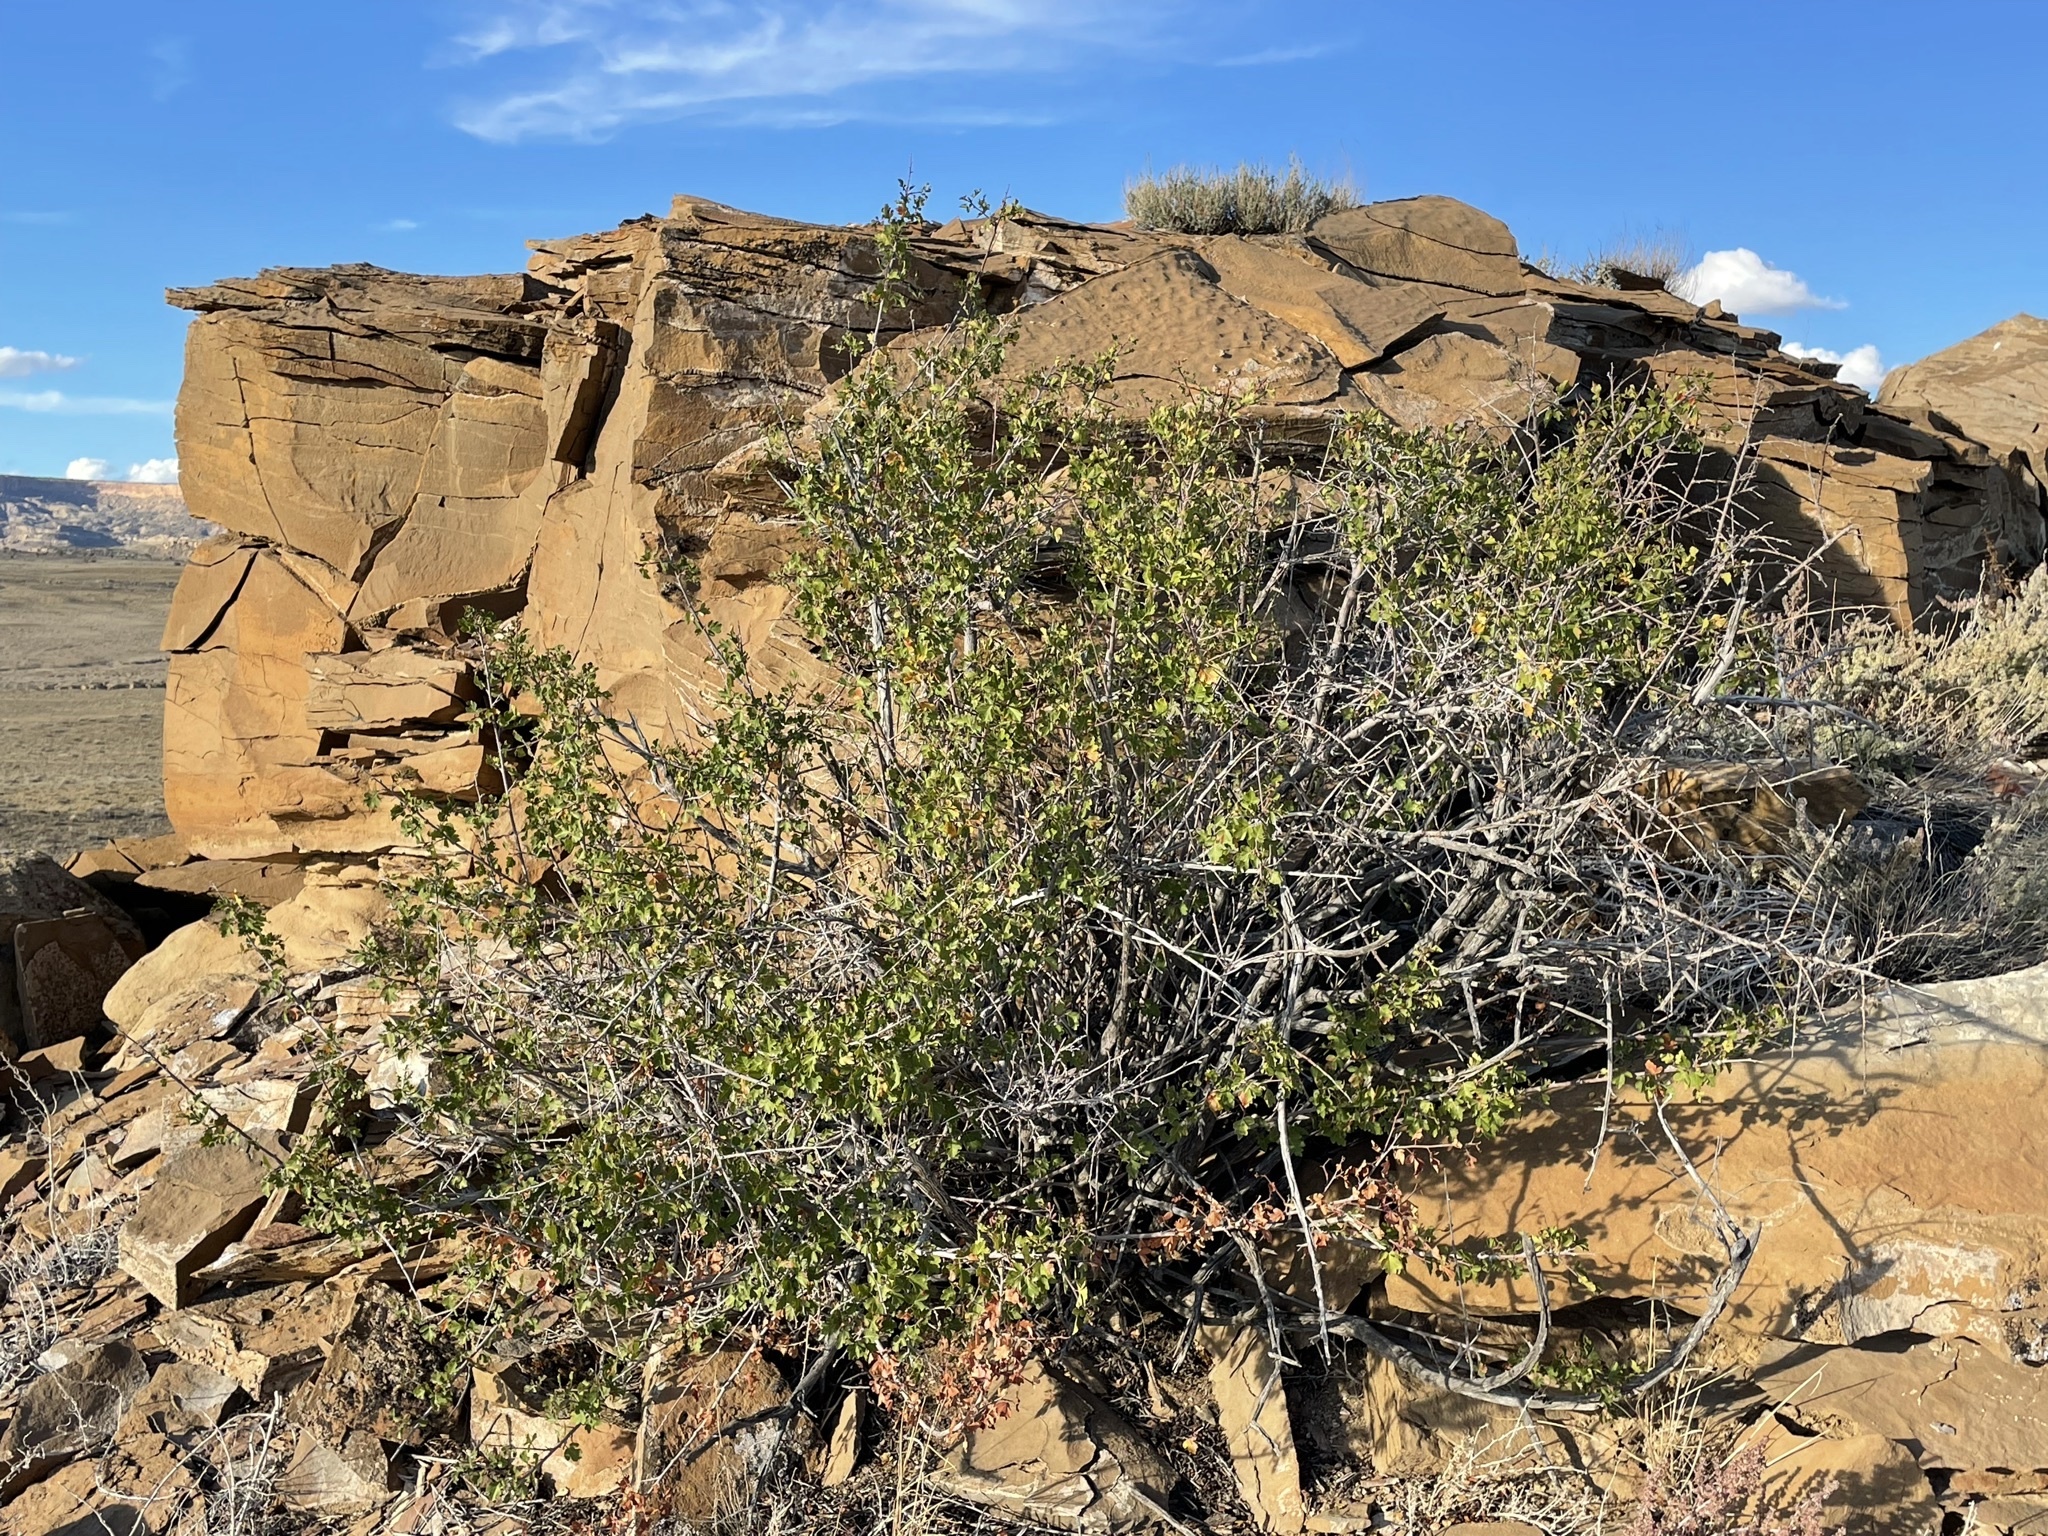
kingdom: Plantae
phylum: Tracheophyta
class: Magnoliopsida
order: Sapindales
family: Anacardiaceae
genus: Rhus
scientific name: Rhus trilobata
